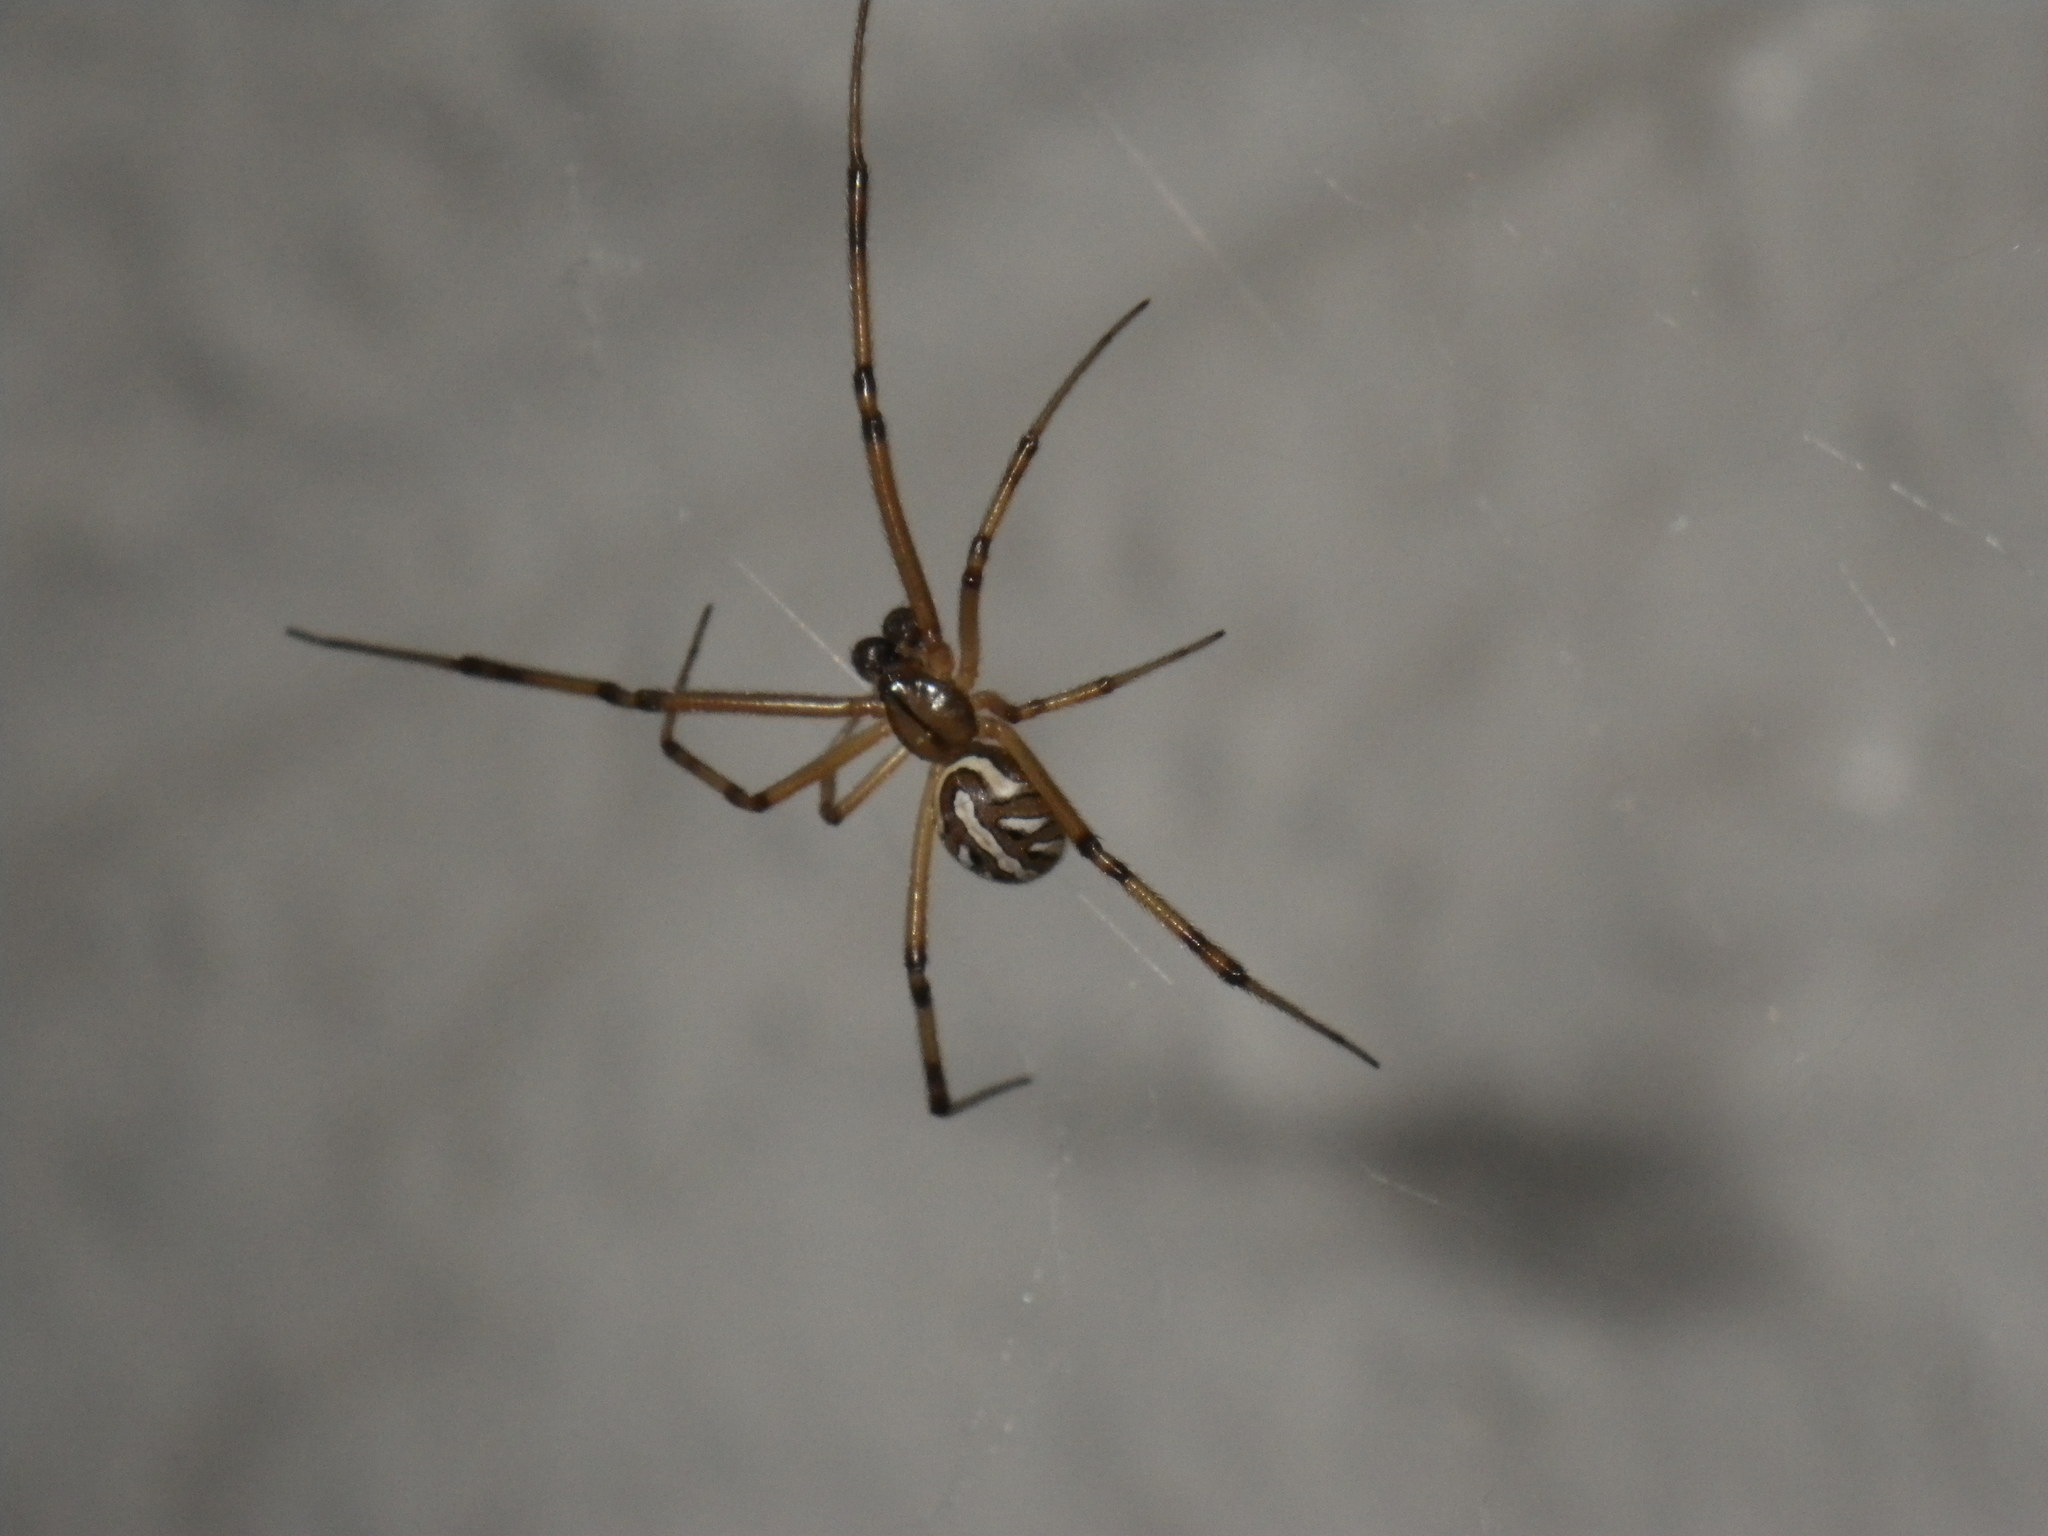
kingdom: Animalia
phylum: Arthropoda
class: Arachnida
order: Araneae
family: Theridiidae
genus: Latrodectus
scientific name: Latrodectus hesperus
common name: Western black widow
